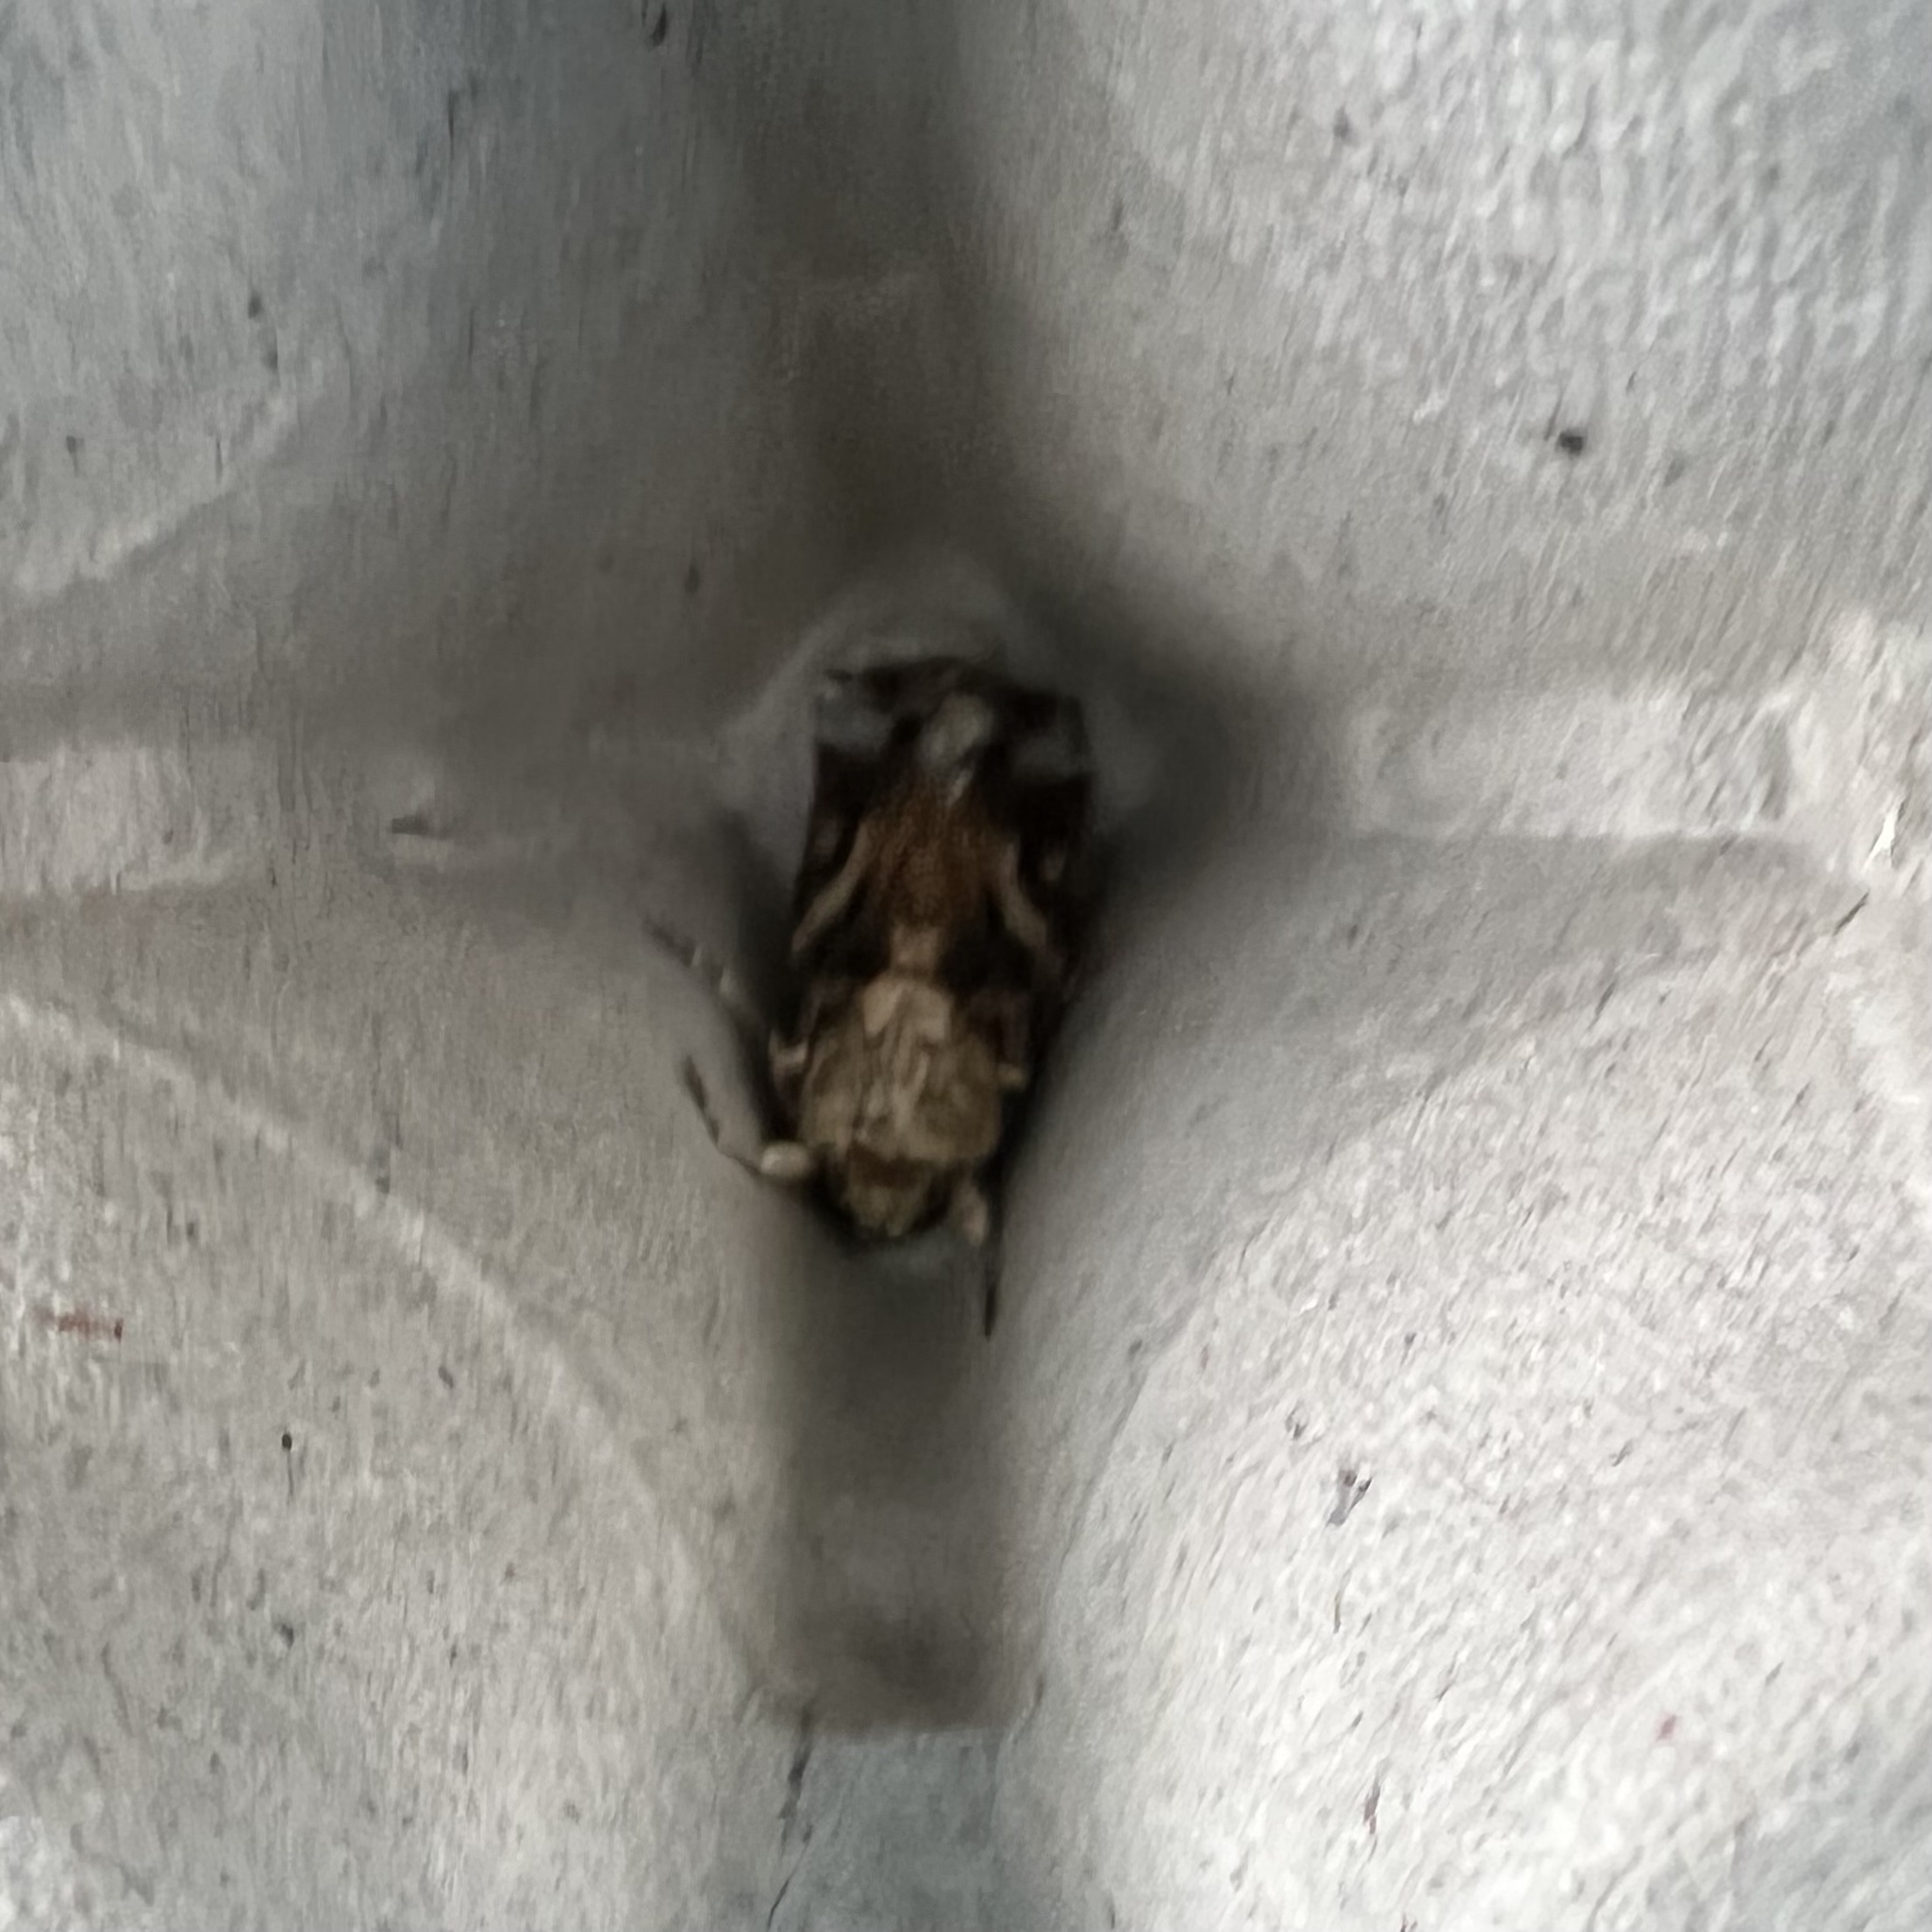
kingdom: Animalia
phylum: Arthropoda
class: Insecta
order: Lepidoptera
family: Noctuidae
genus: Spodoptera
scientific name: Spodoptera ornithogalli
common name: Yellow-striped armyworm
